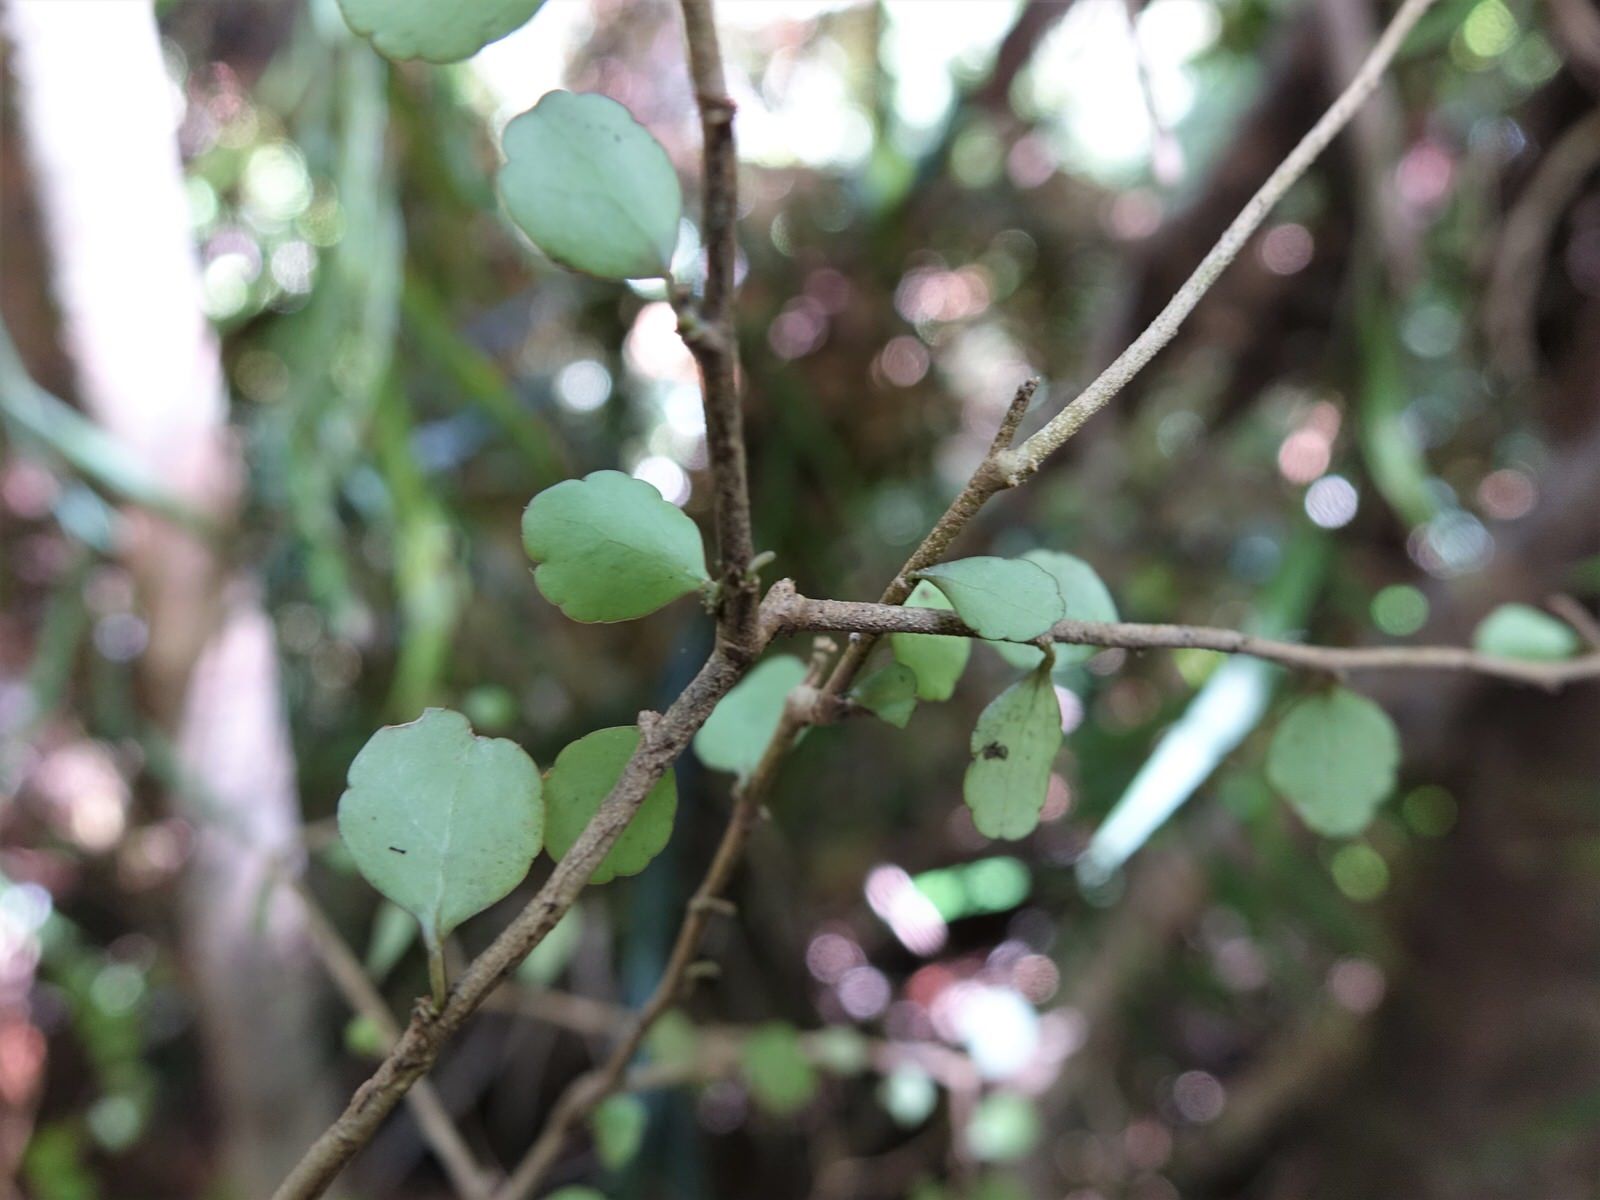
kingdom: Plantae
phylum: Tracheophyta
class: Magnoliopsida
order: Apiales
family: Araliaceae
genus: Raukaua
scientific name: Raukaua anomalus
